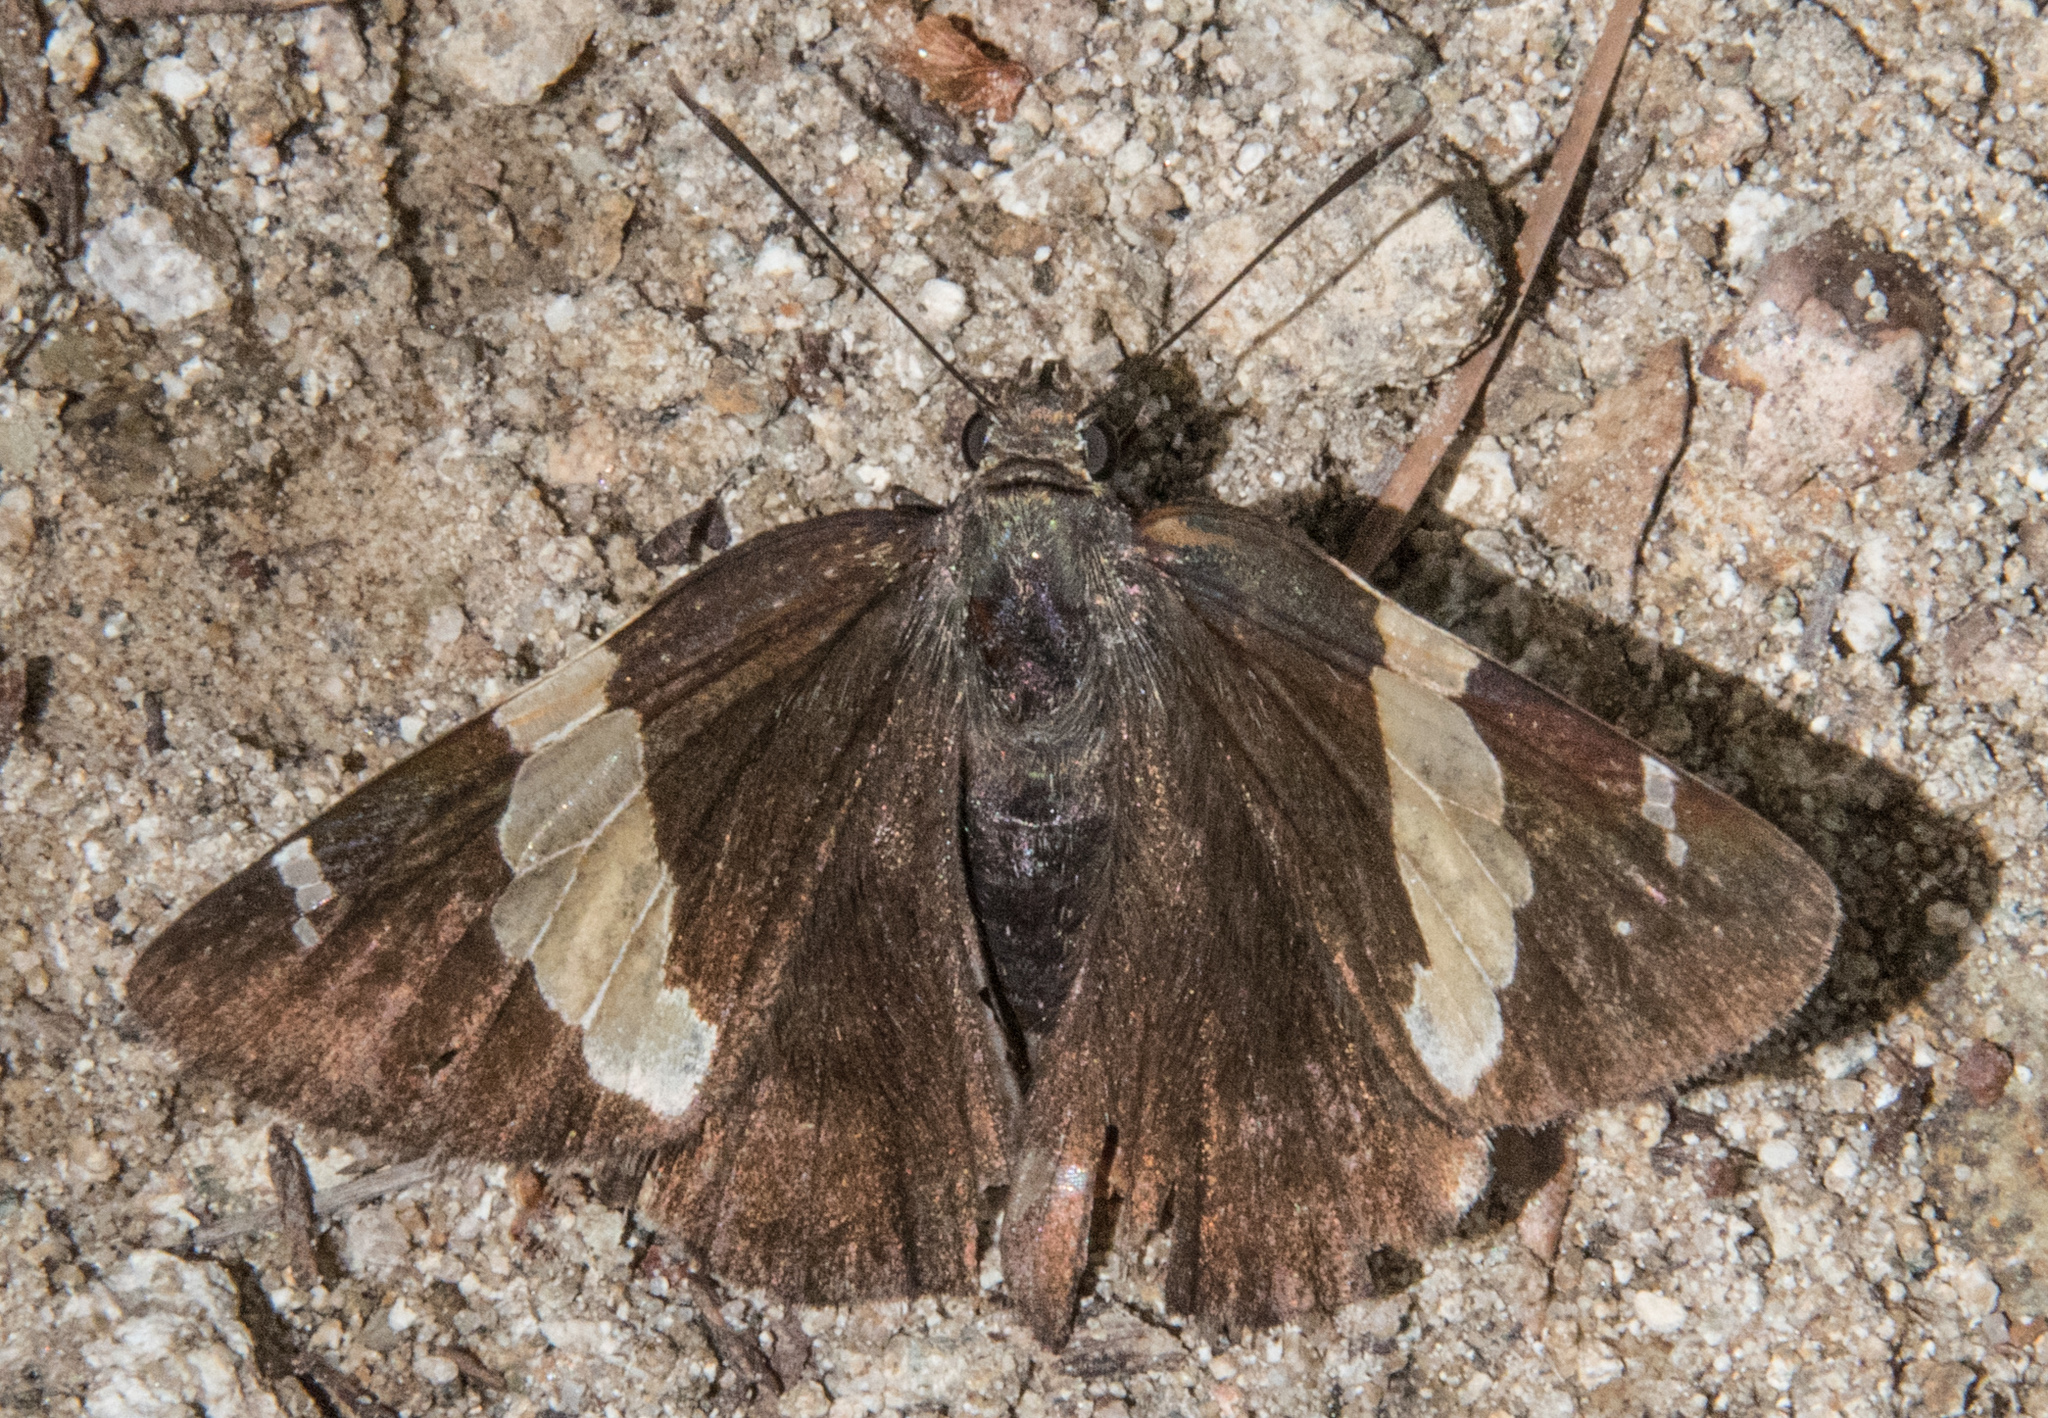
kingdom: Animalia
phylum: Arthropoda
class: Arachnida
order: Scorpiones
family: Bothriuridae
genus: Telegonus
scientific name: Telegonus cellus
